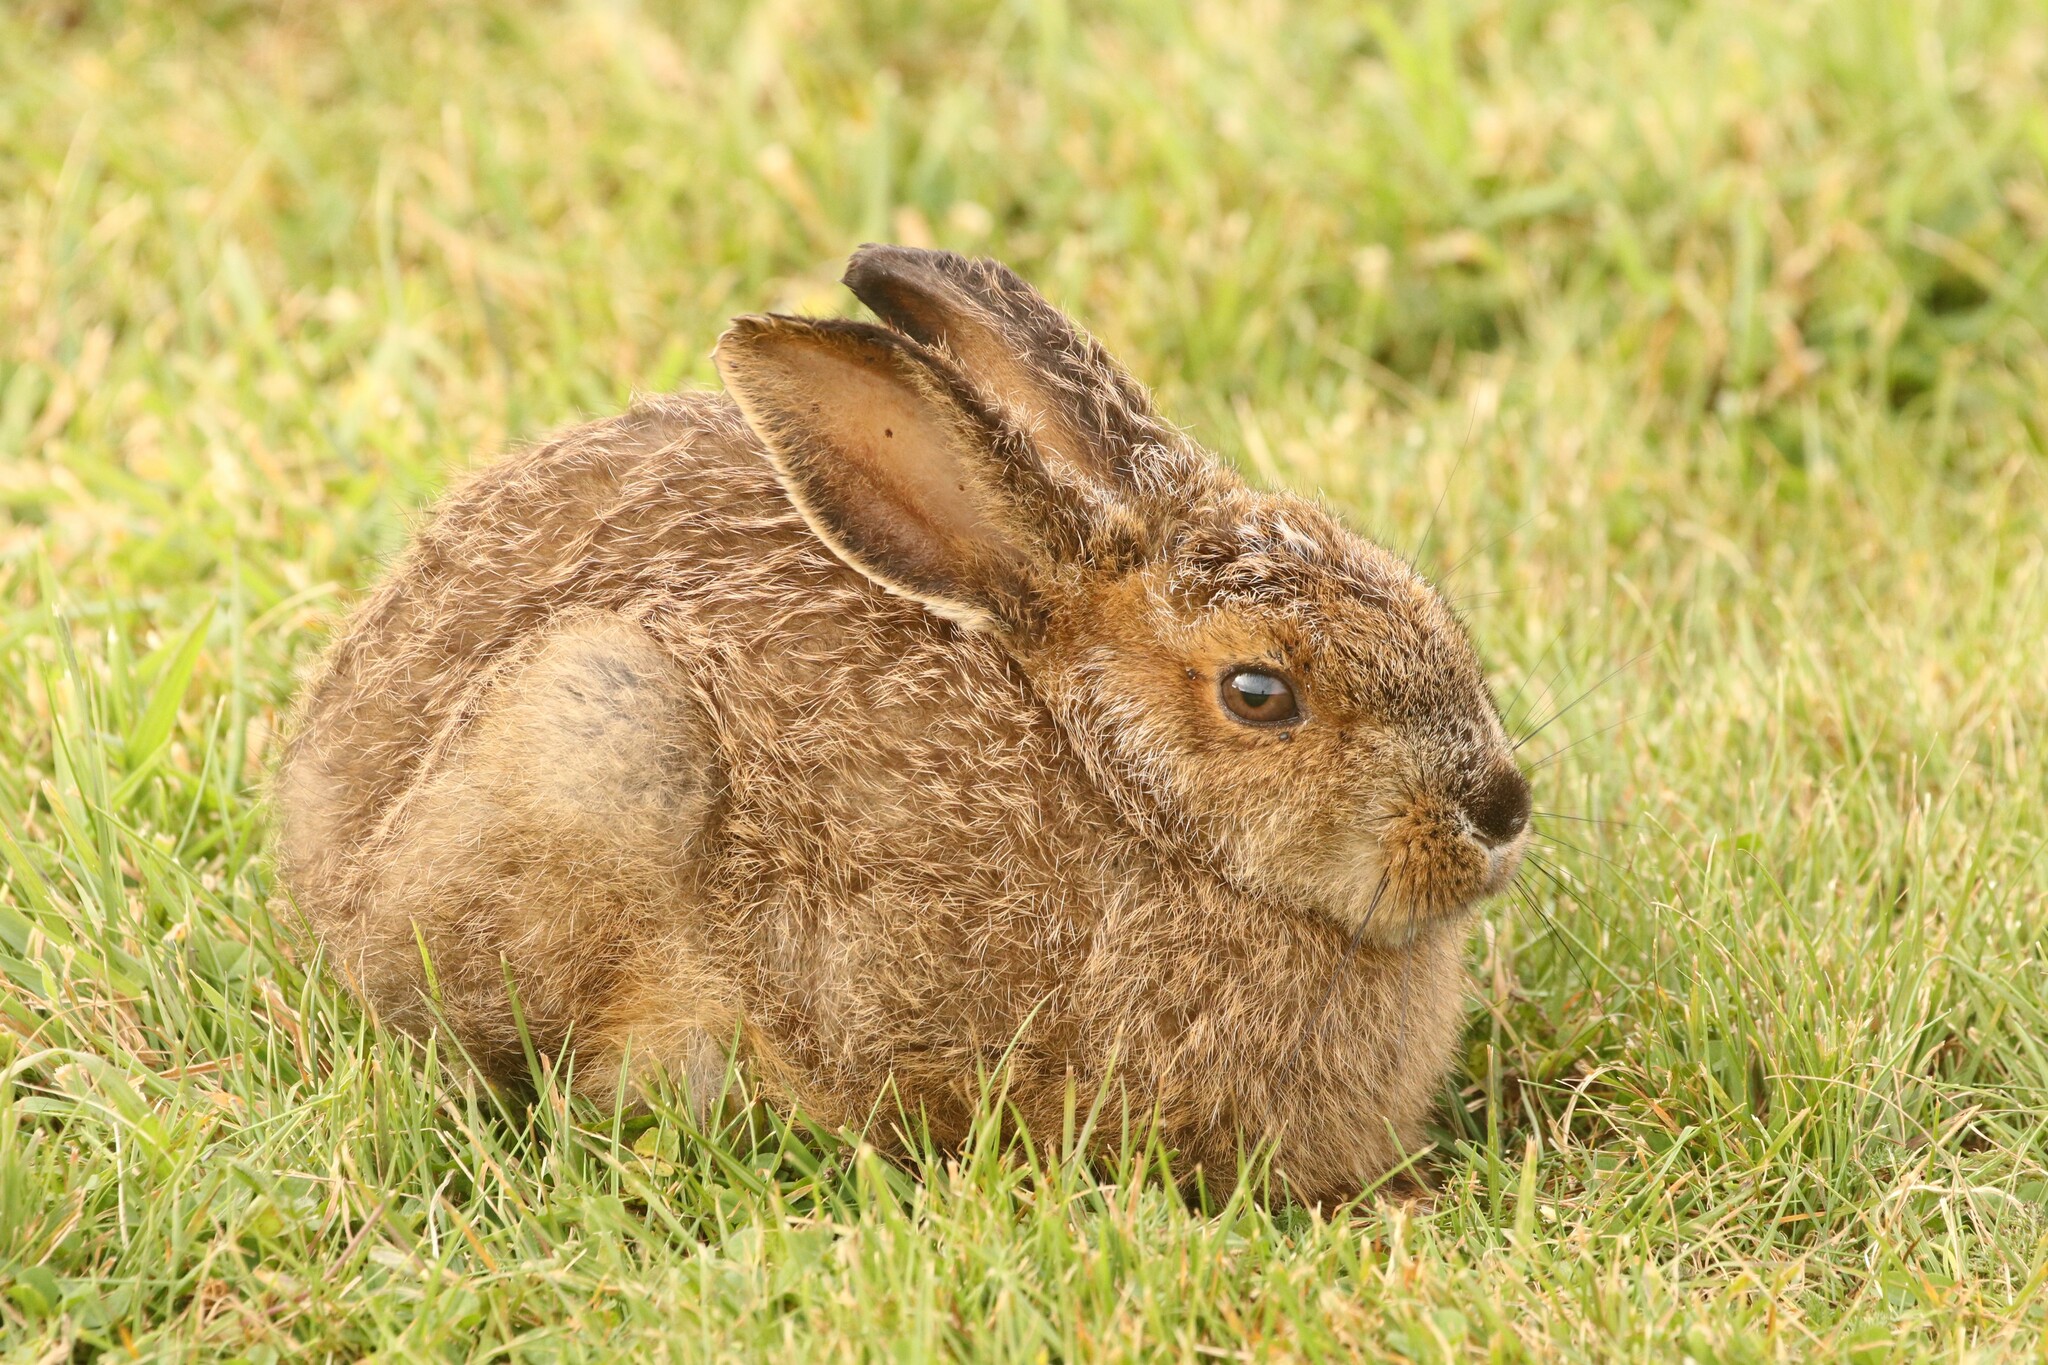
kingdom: Animalia
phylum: Chordata
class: Mammalia
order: Lagomorpha
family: Leporidae
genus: Lepus
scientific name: Lepus americanus
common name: Snowshoe hare
